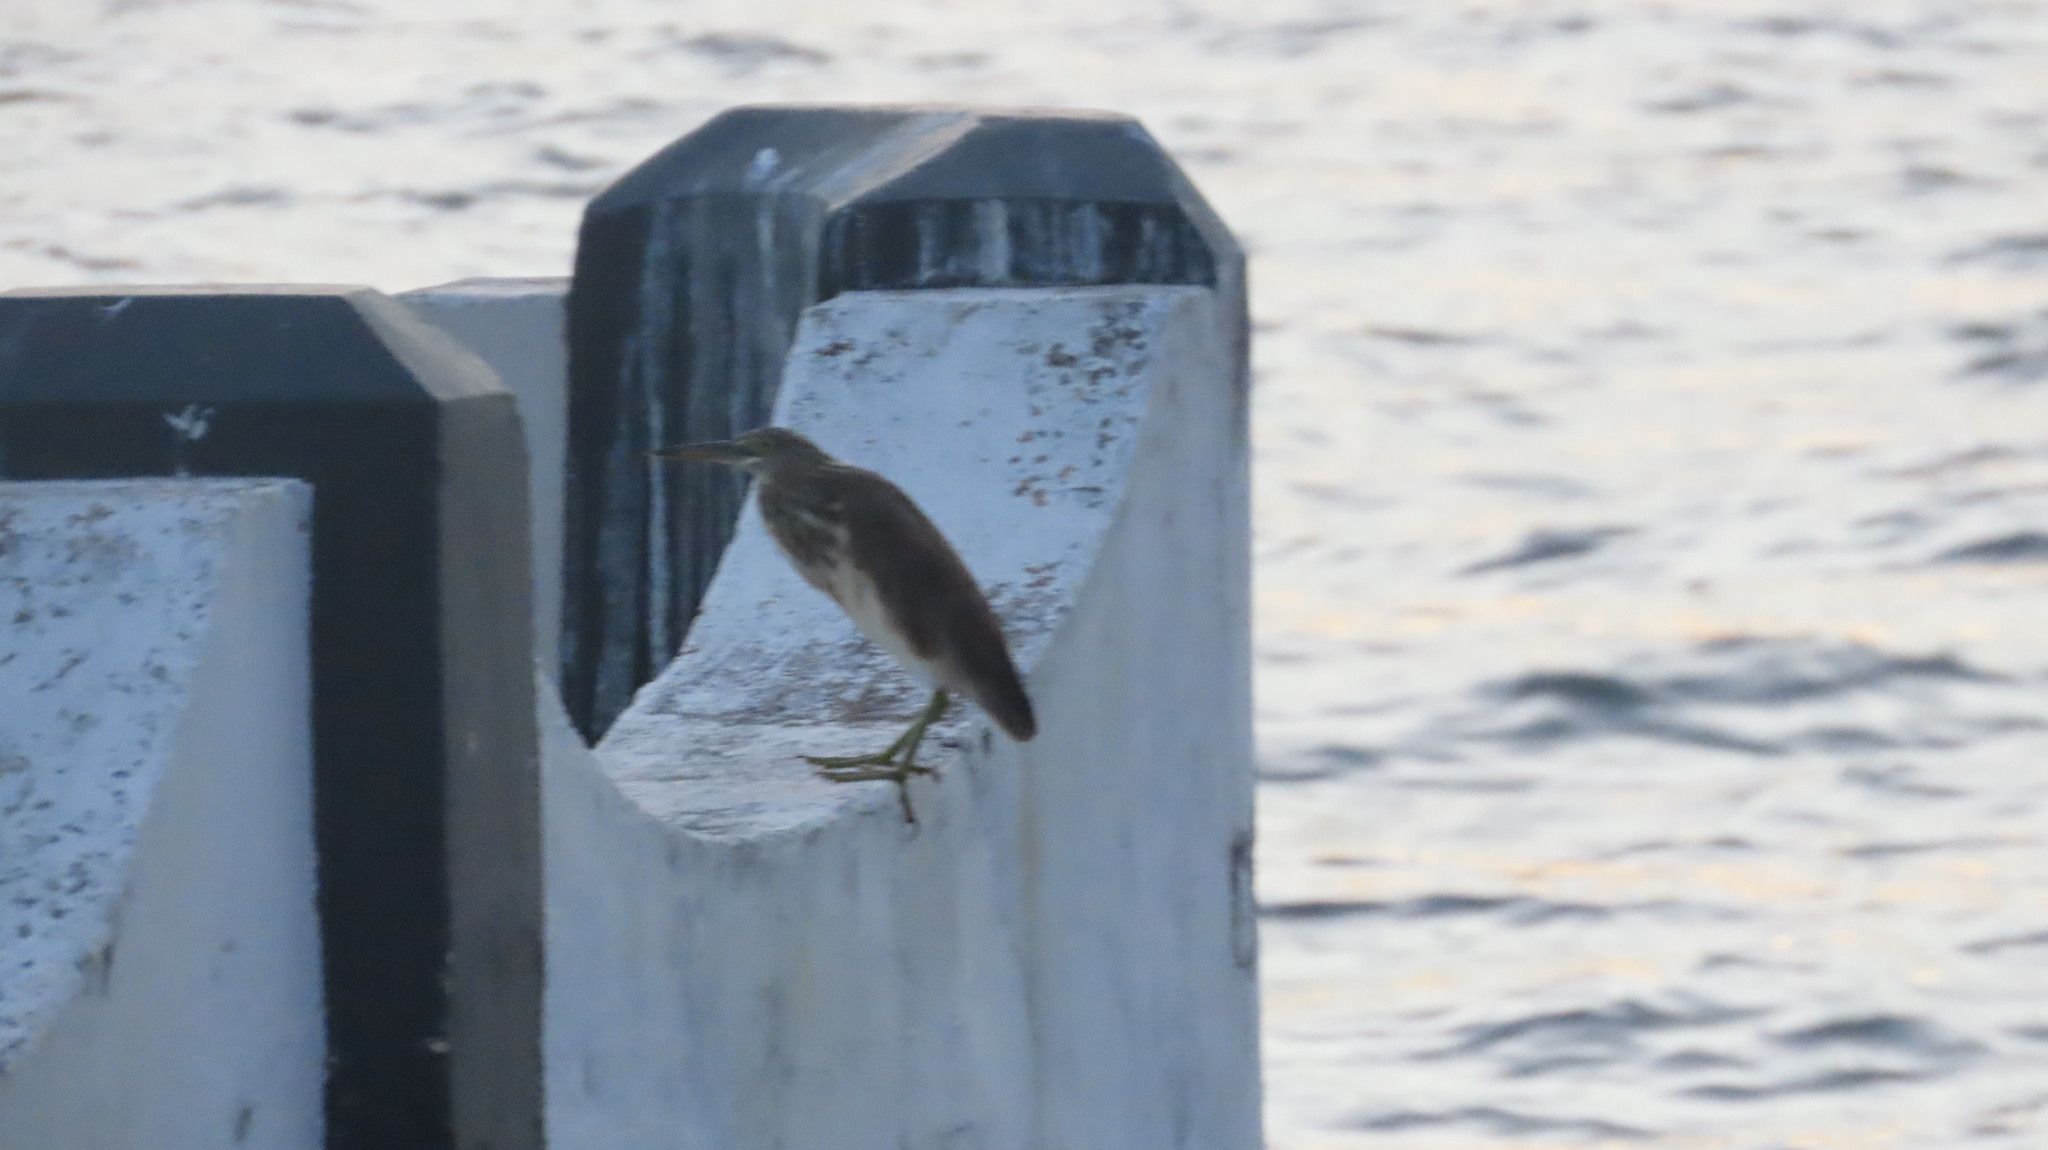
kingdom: Animalia
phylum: Chordata
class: Aves
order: Pelecaniformes
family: Ardeidae
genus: Ardeola
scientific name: Ardeola grayii
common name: Indian pond heron
